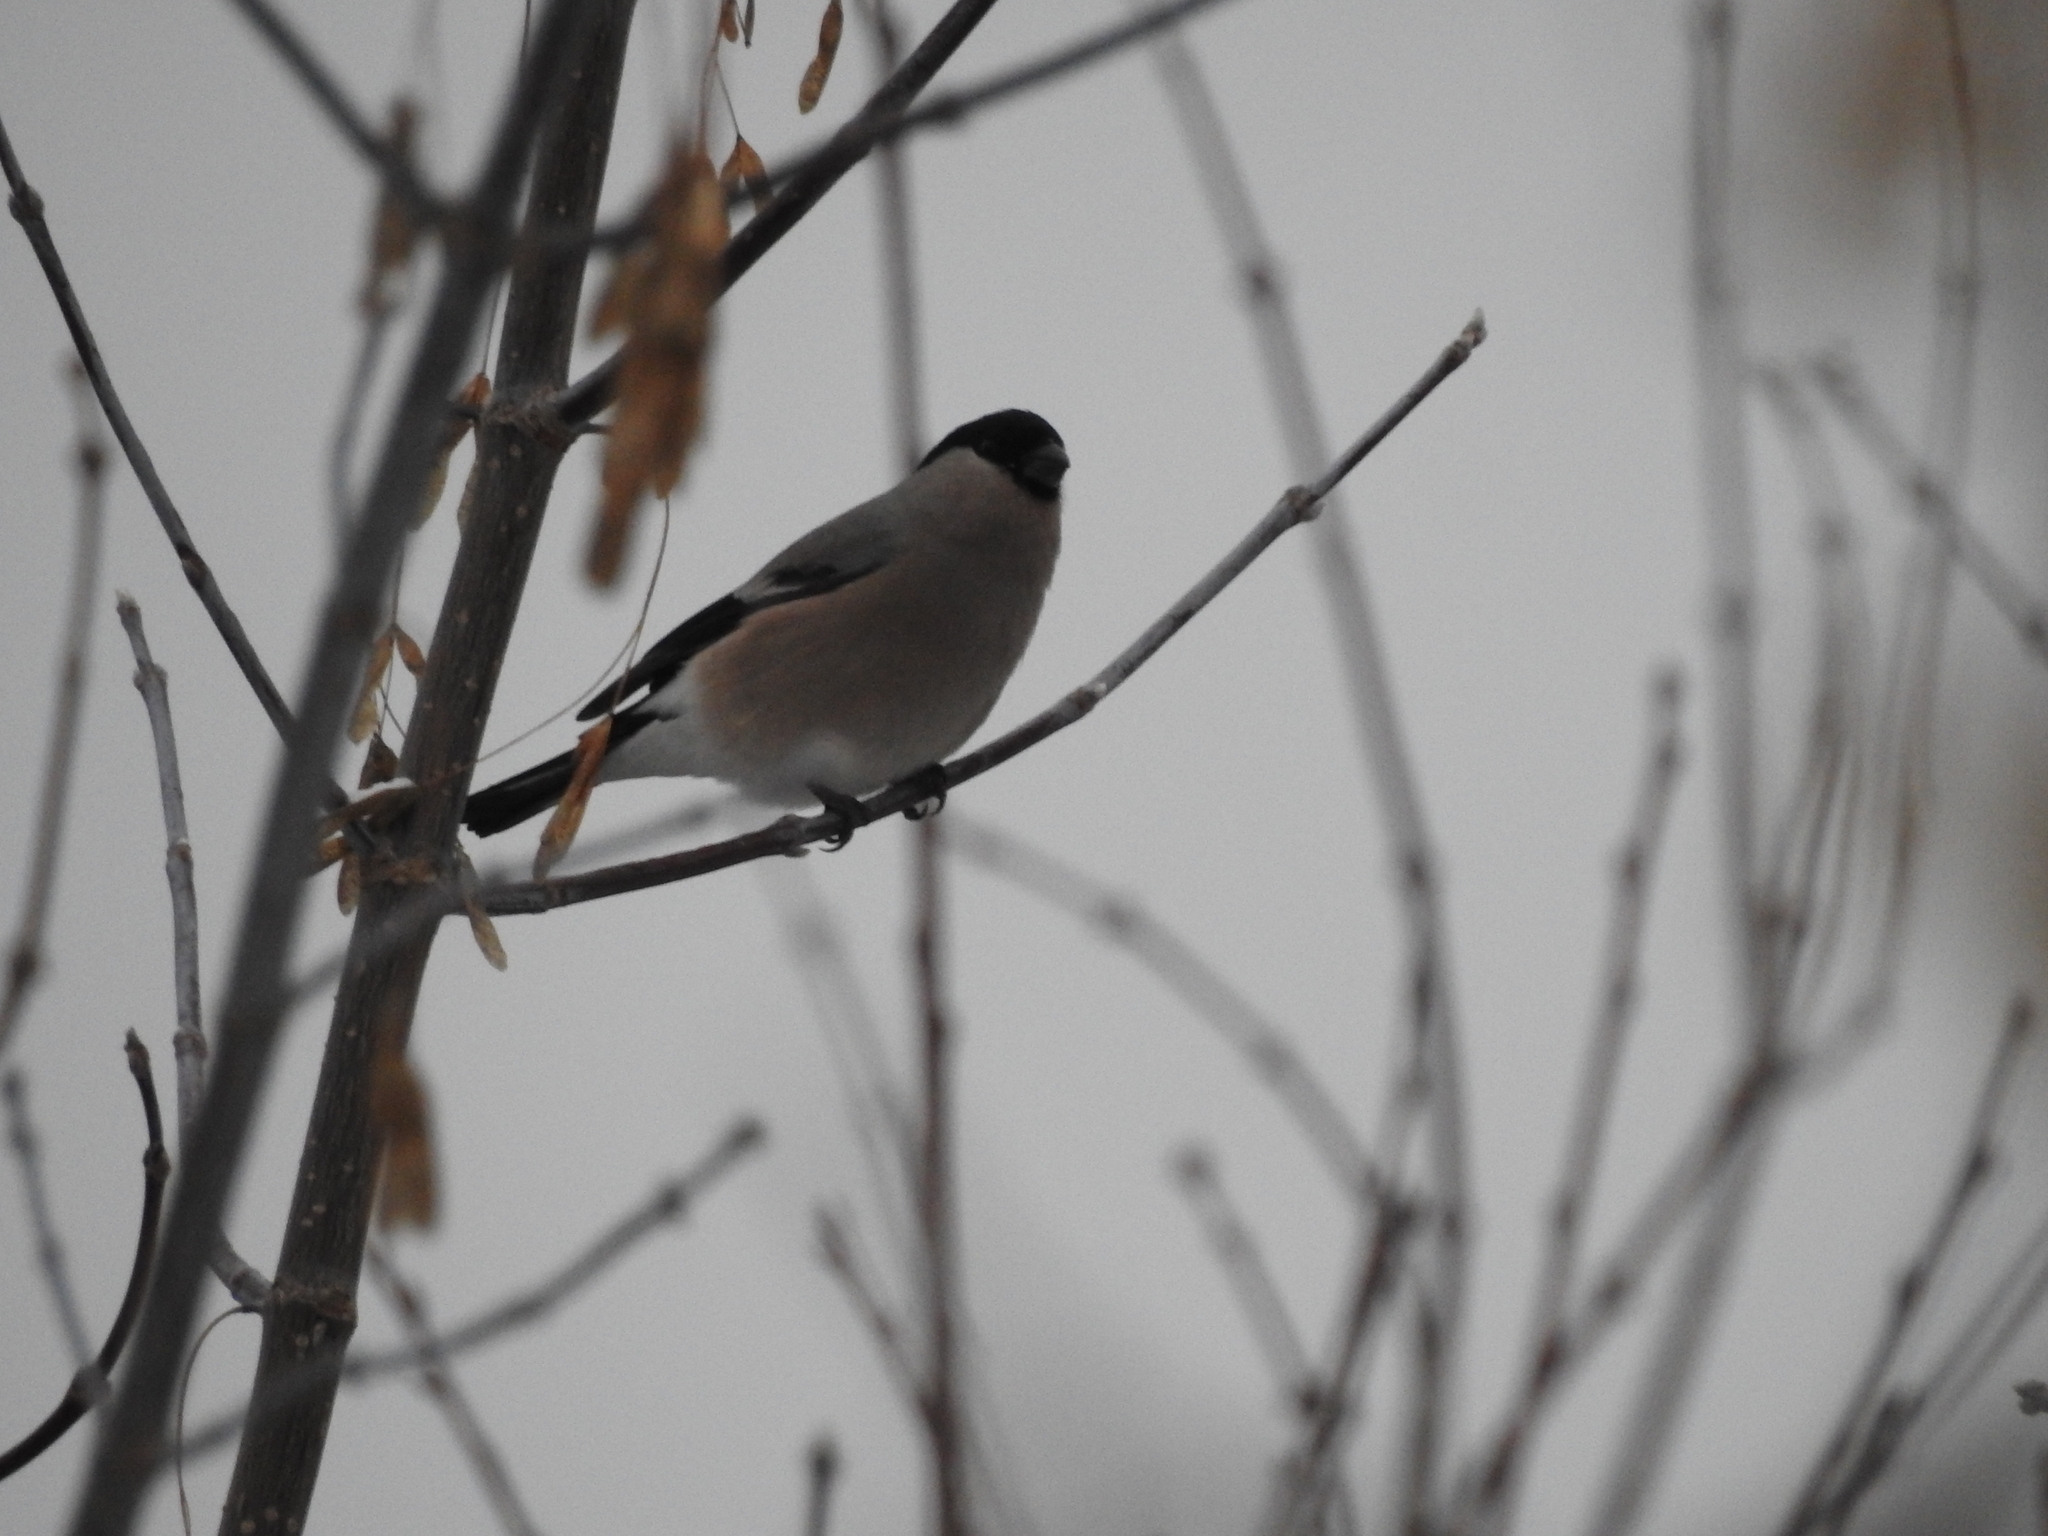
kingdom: Animalia
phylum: Chordata
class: Aves
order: Passeriformes
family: Fringillidae
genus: Pyrrhula
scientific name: Pyrrhula pyrrhula
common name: Eurasian bullfinch
